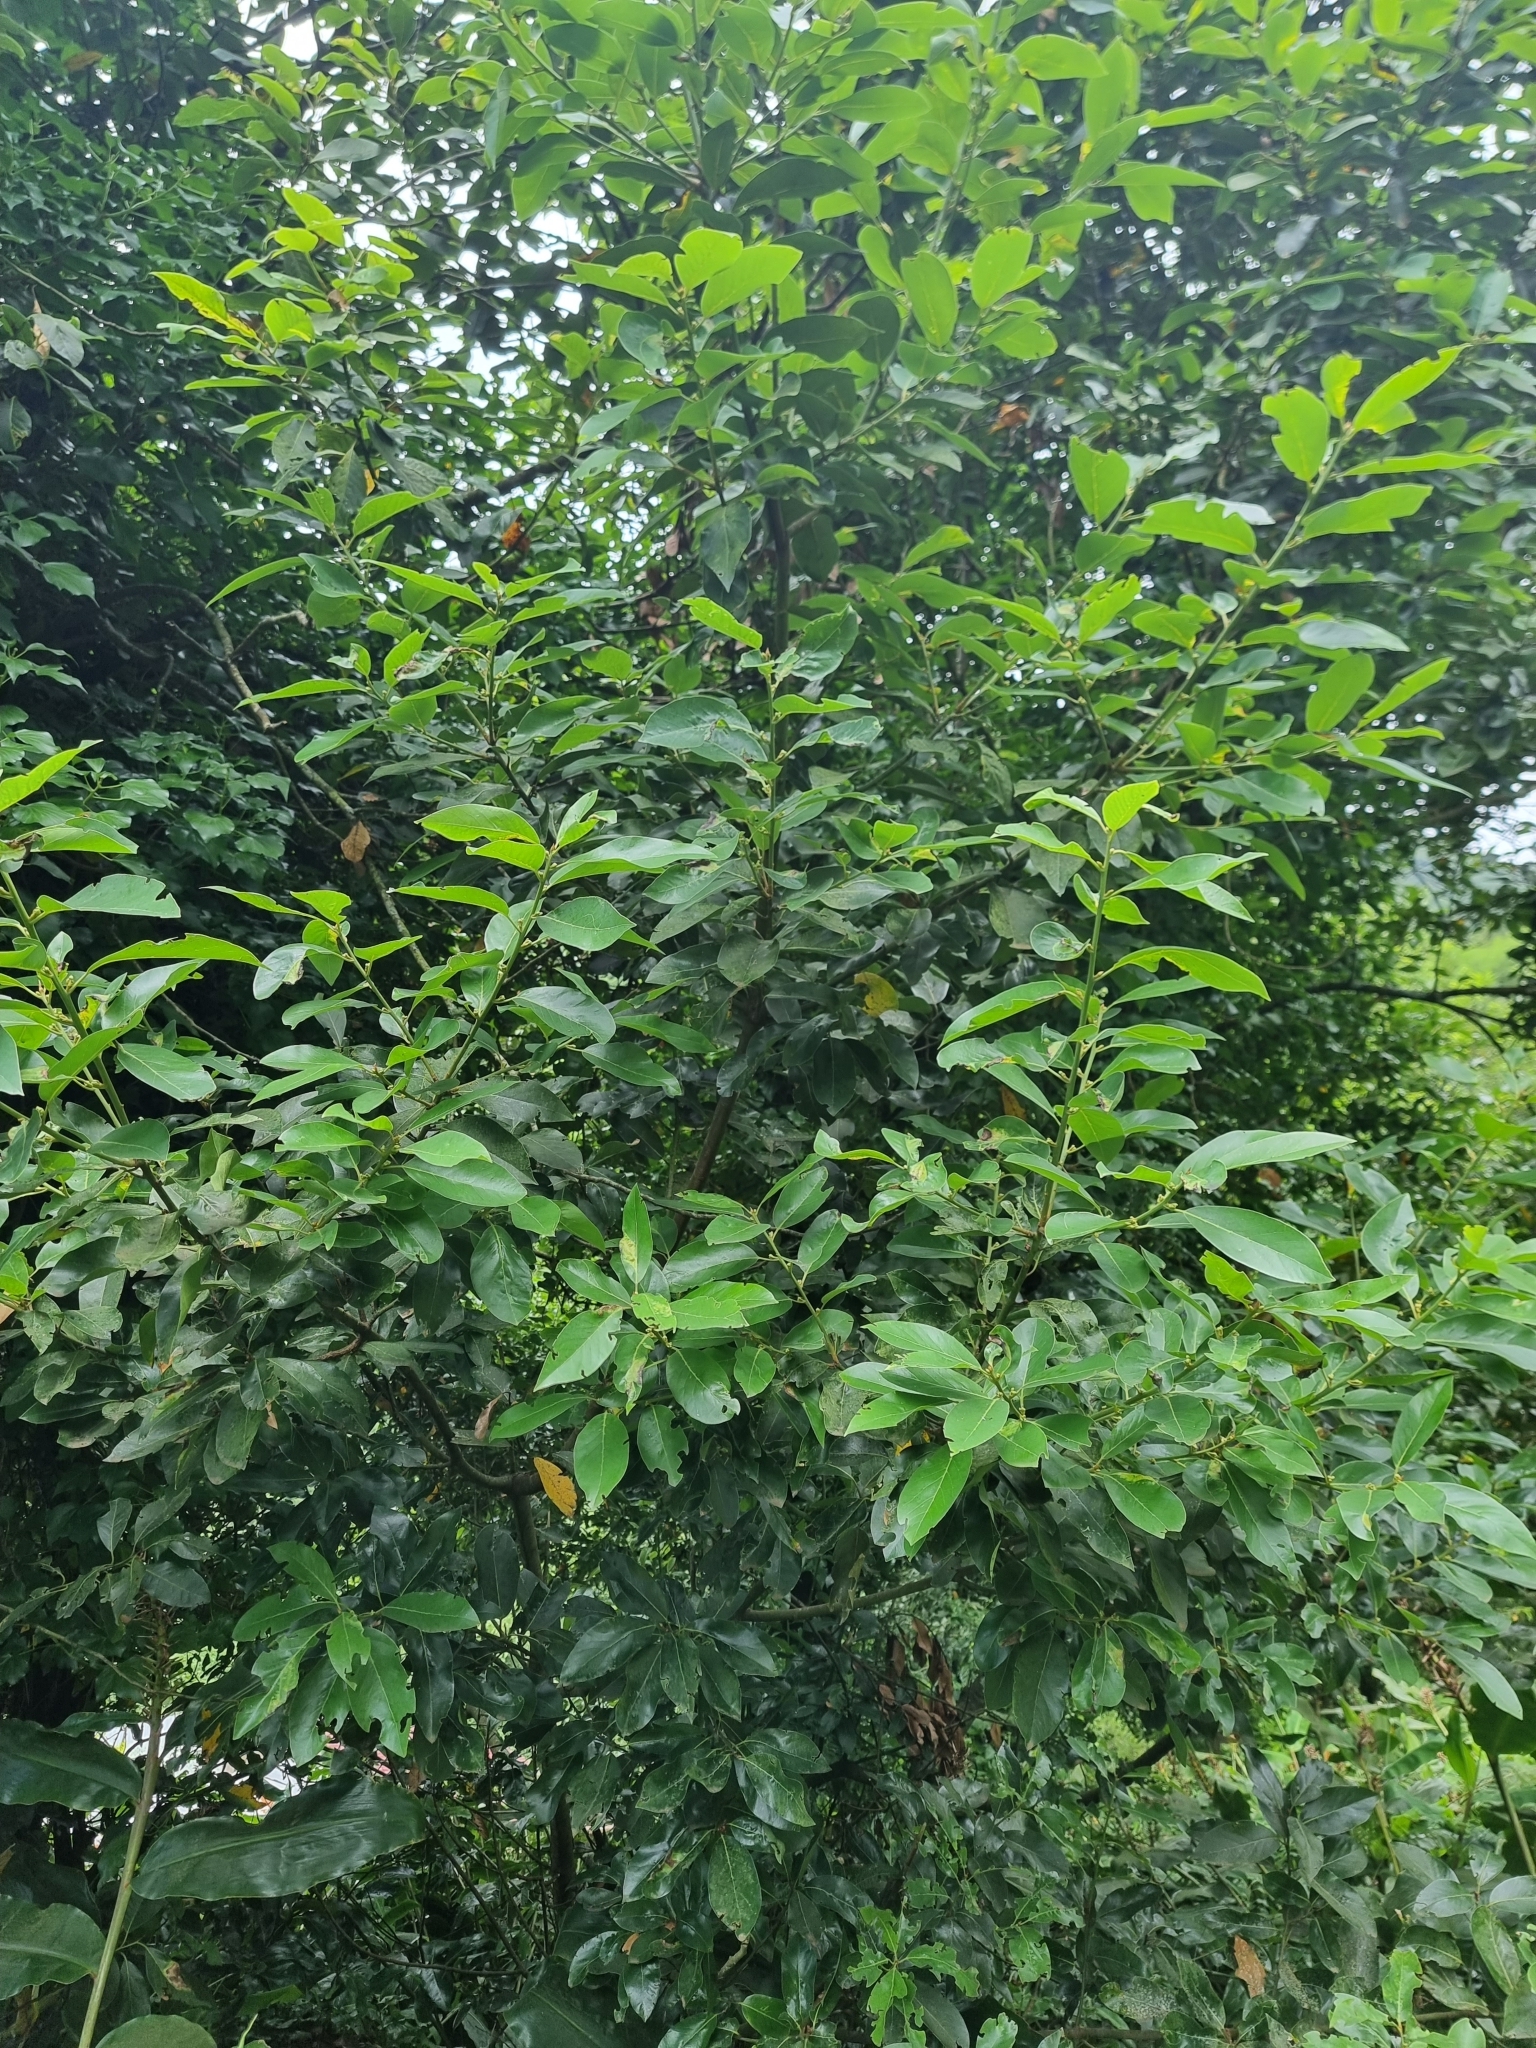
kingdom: Plantae
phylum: Tracheophyta
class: Magnoliopsida
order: Laurales
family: Lauraceae
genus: Laurus
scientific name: Laurus novocanariensis
